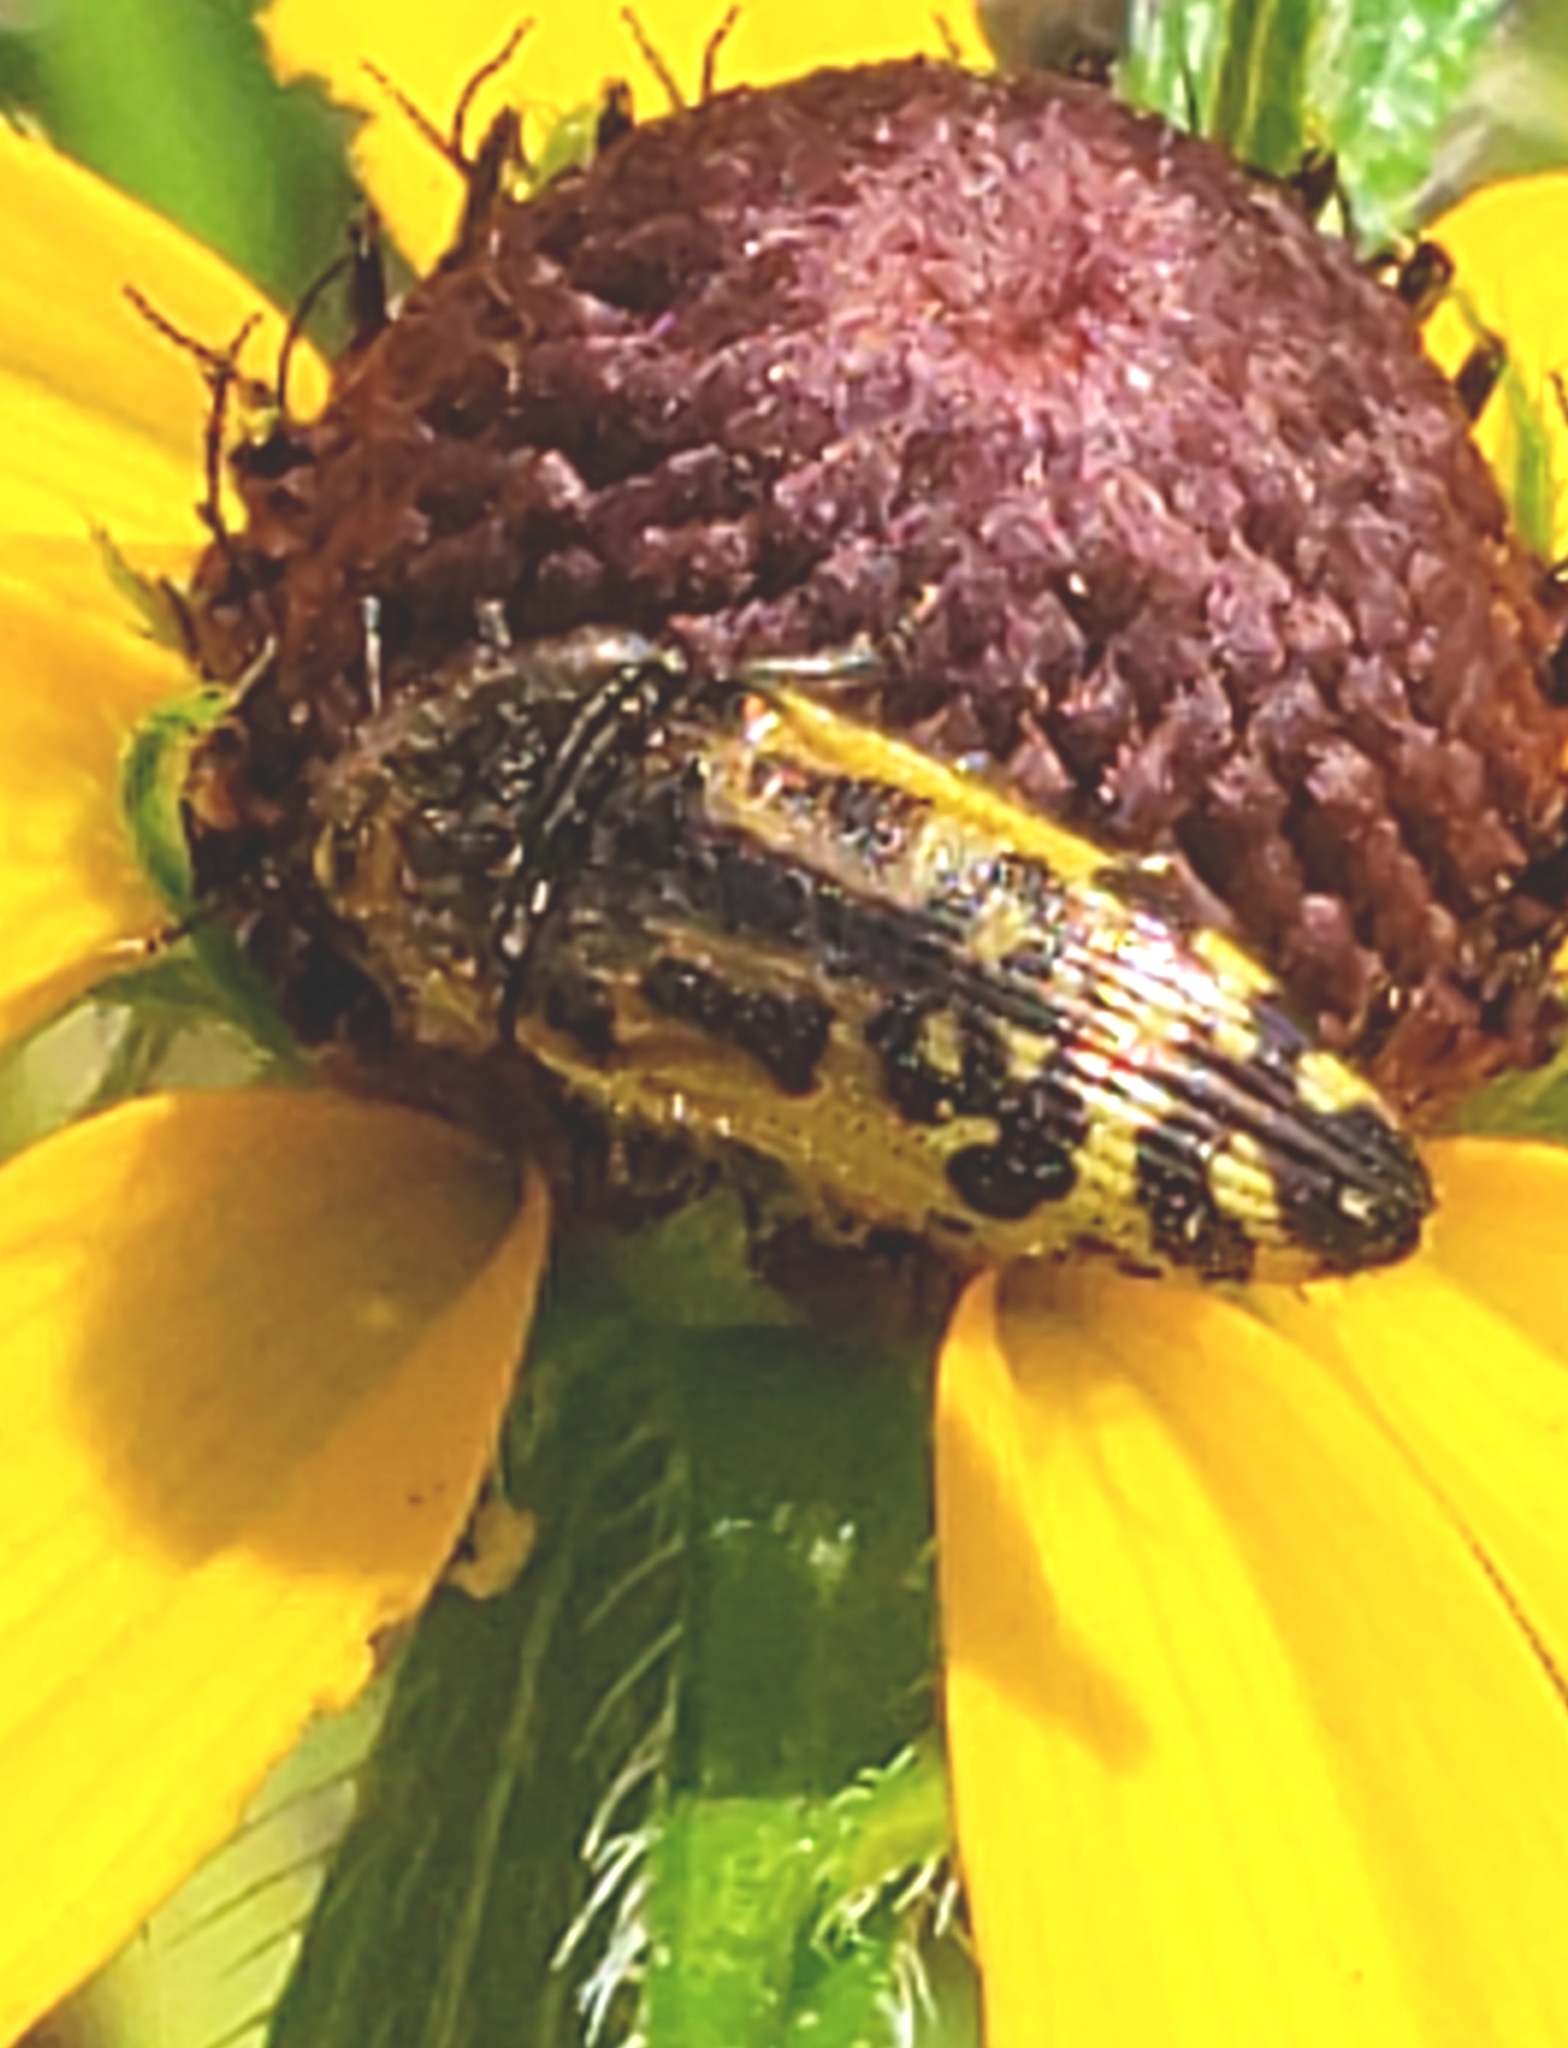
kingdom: Animalia
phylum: Arthropoda
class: Insecta
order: Coleoptera
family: Buprestidae
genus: Acmaeodera
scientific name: Acmaeodera pulchella
